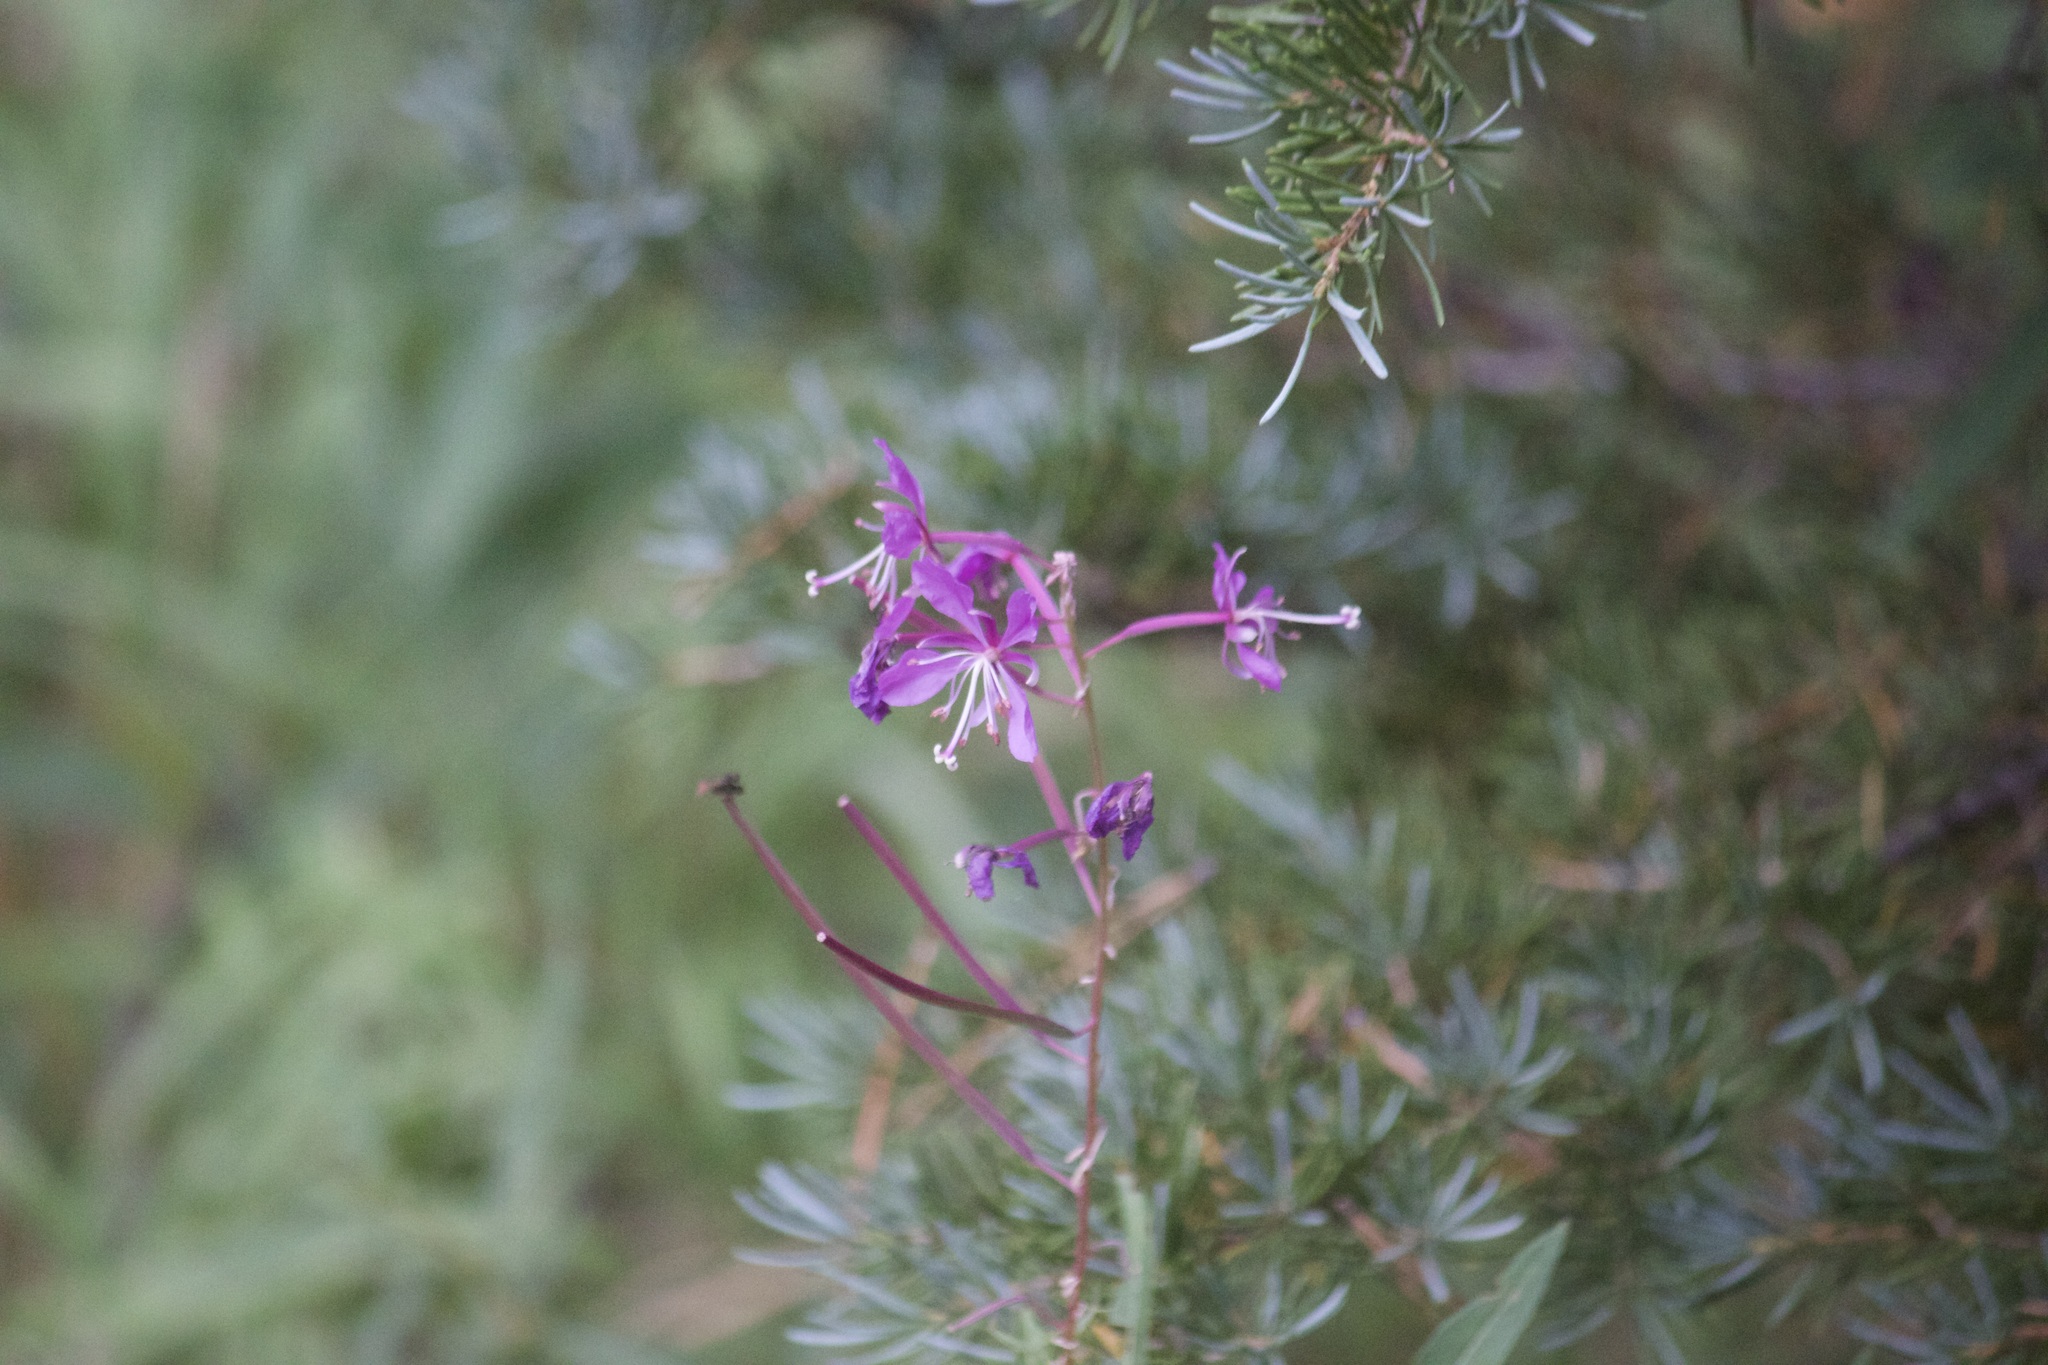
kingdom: Plantae
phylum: Tracheophyta
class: Magnoliopsida
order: Myrtales
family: Onagraceae
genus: Chamaenerion
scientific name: Chamaenerion angustifolium
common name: Fireweed
